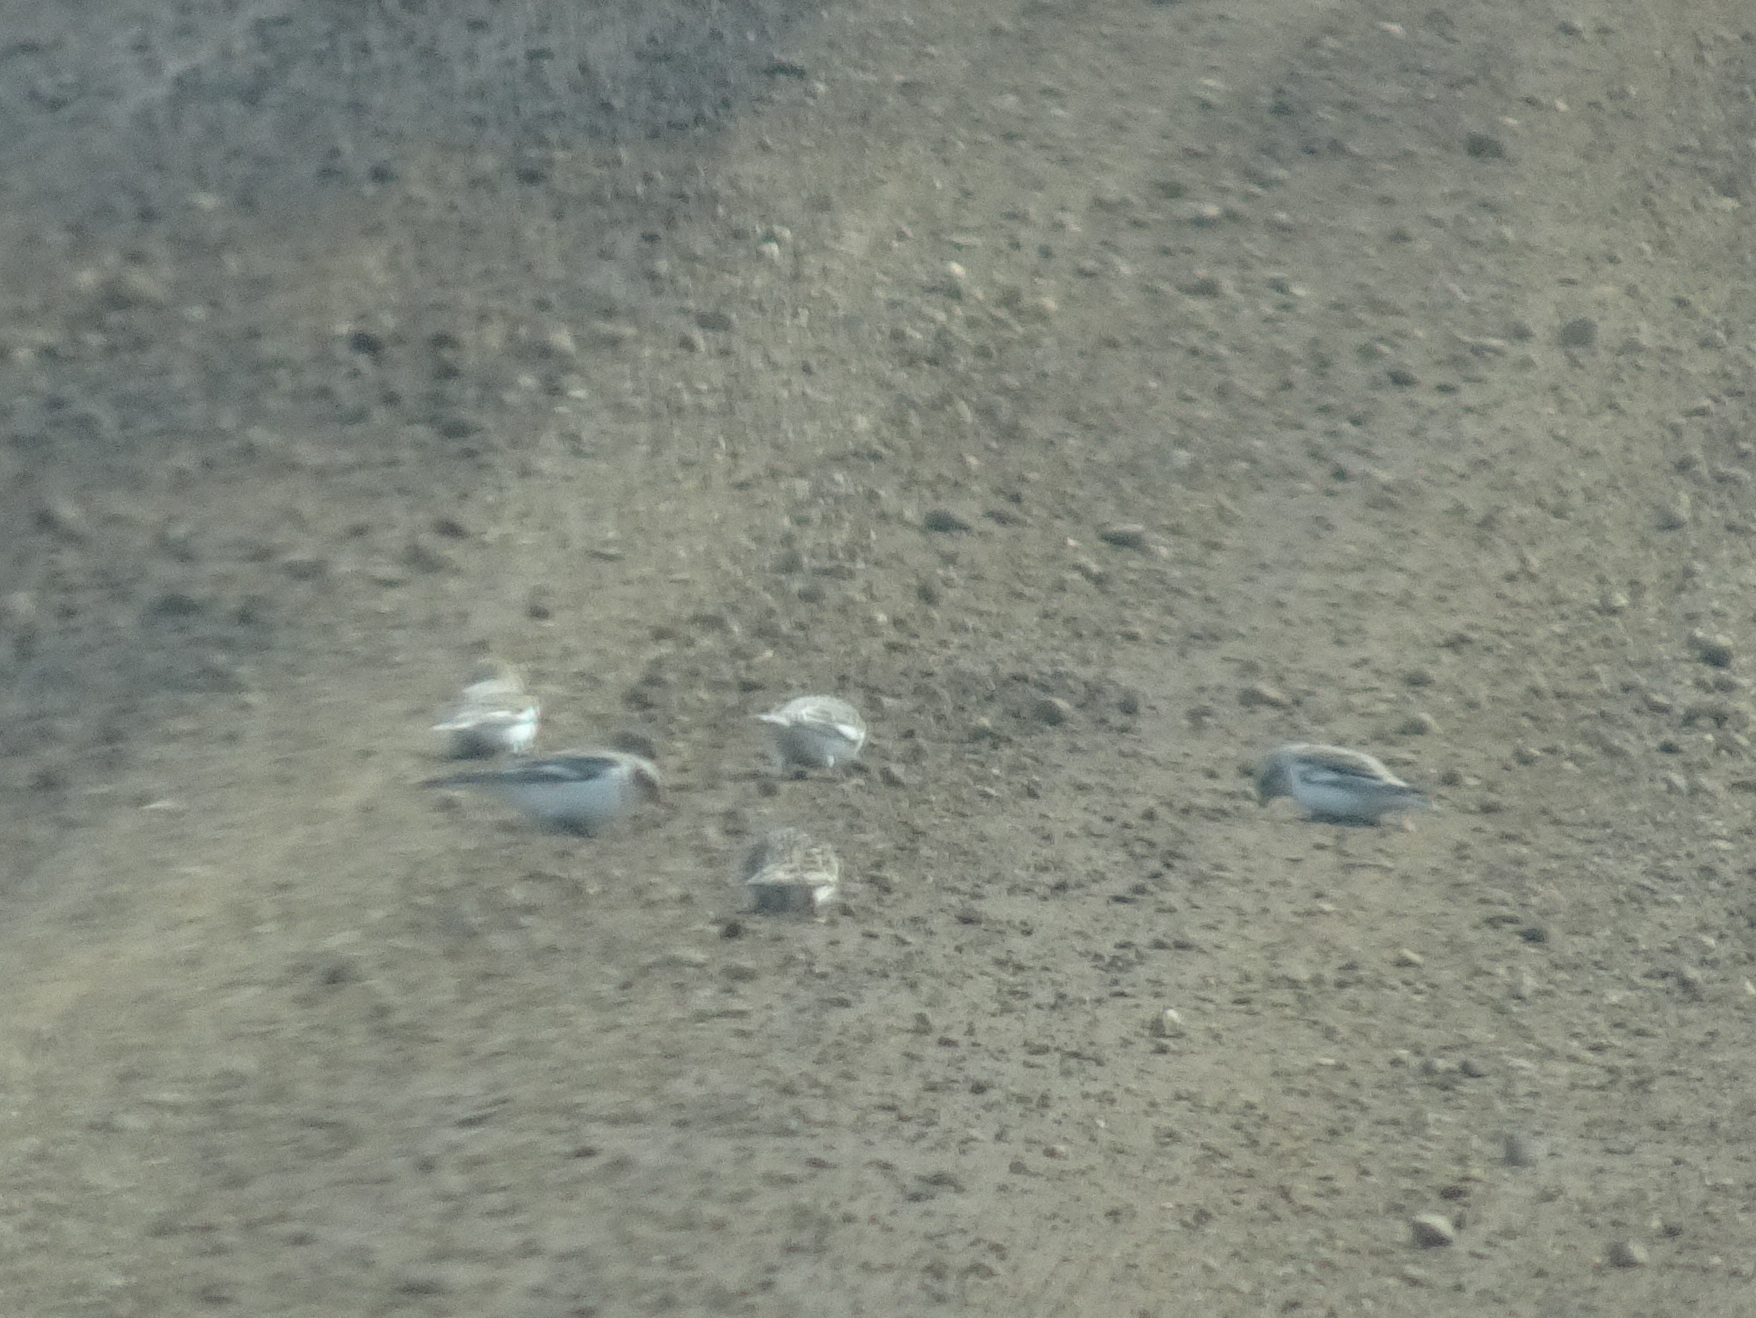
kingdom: Animalia
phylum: Chordata
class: Aves
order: Passeriformes
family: Calcariidae
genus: Plectrophenax
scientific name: Plectrophenax nivalis
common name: Snow bunting
